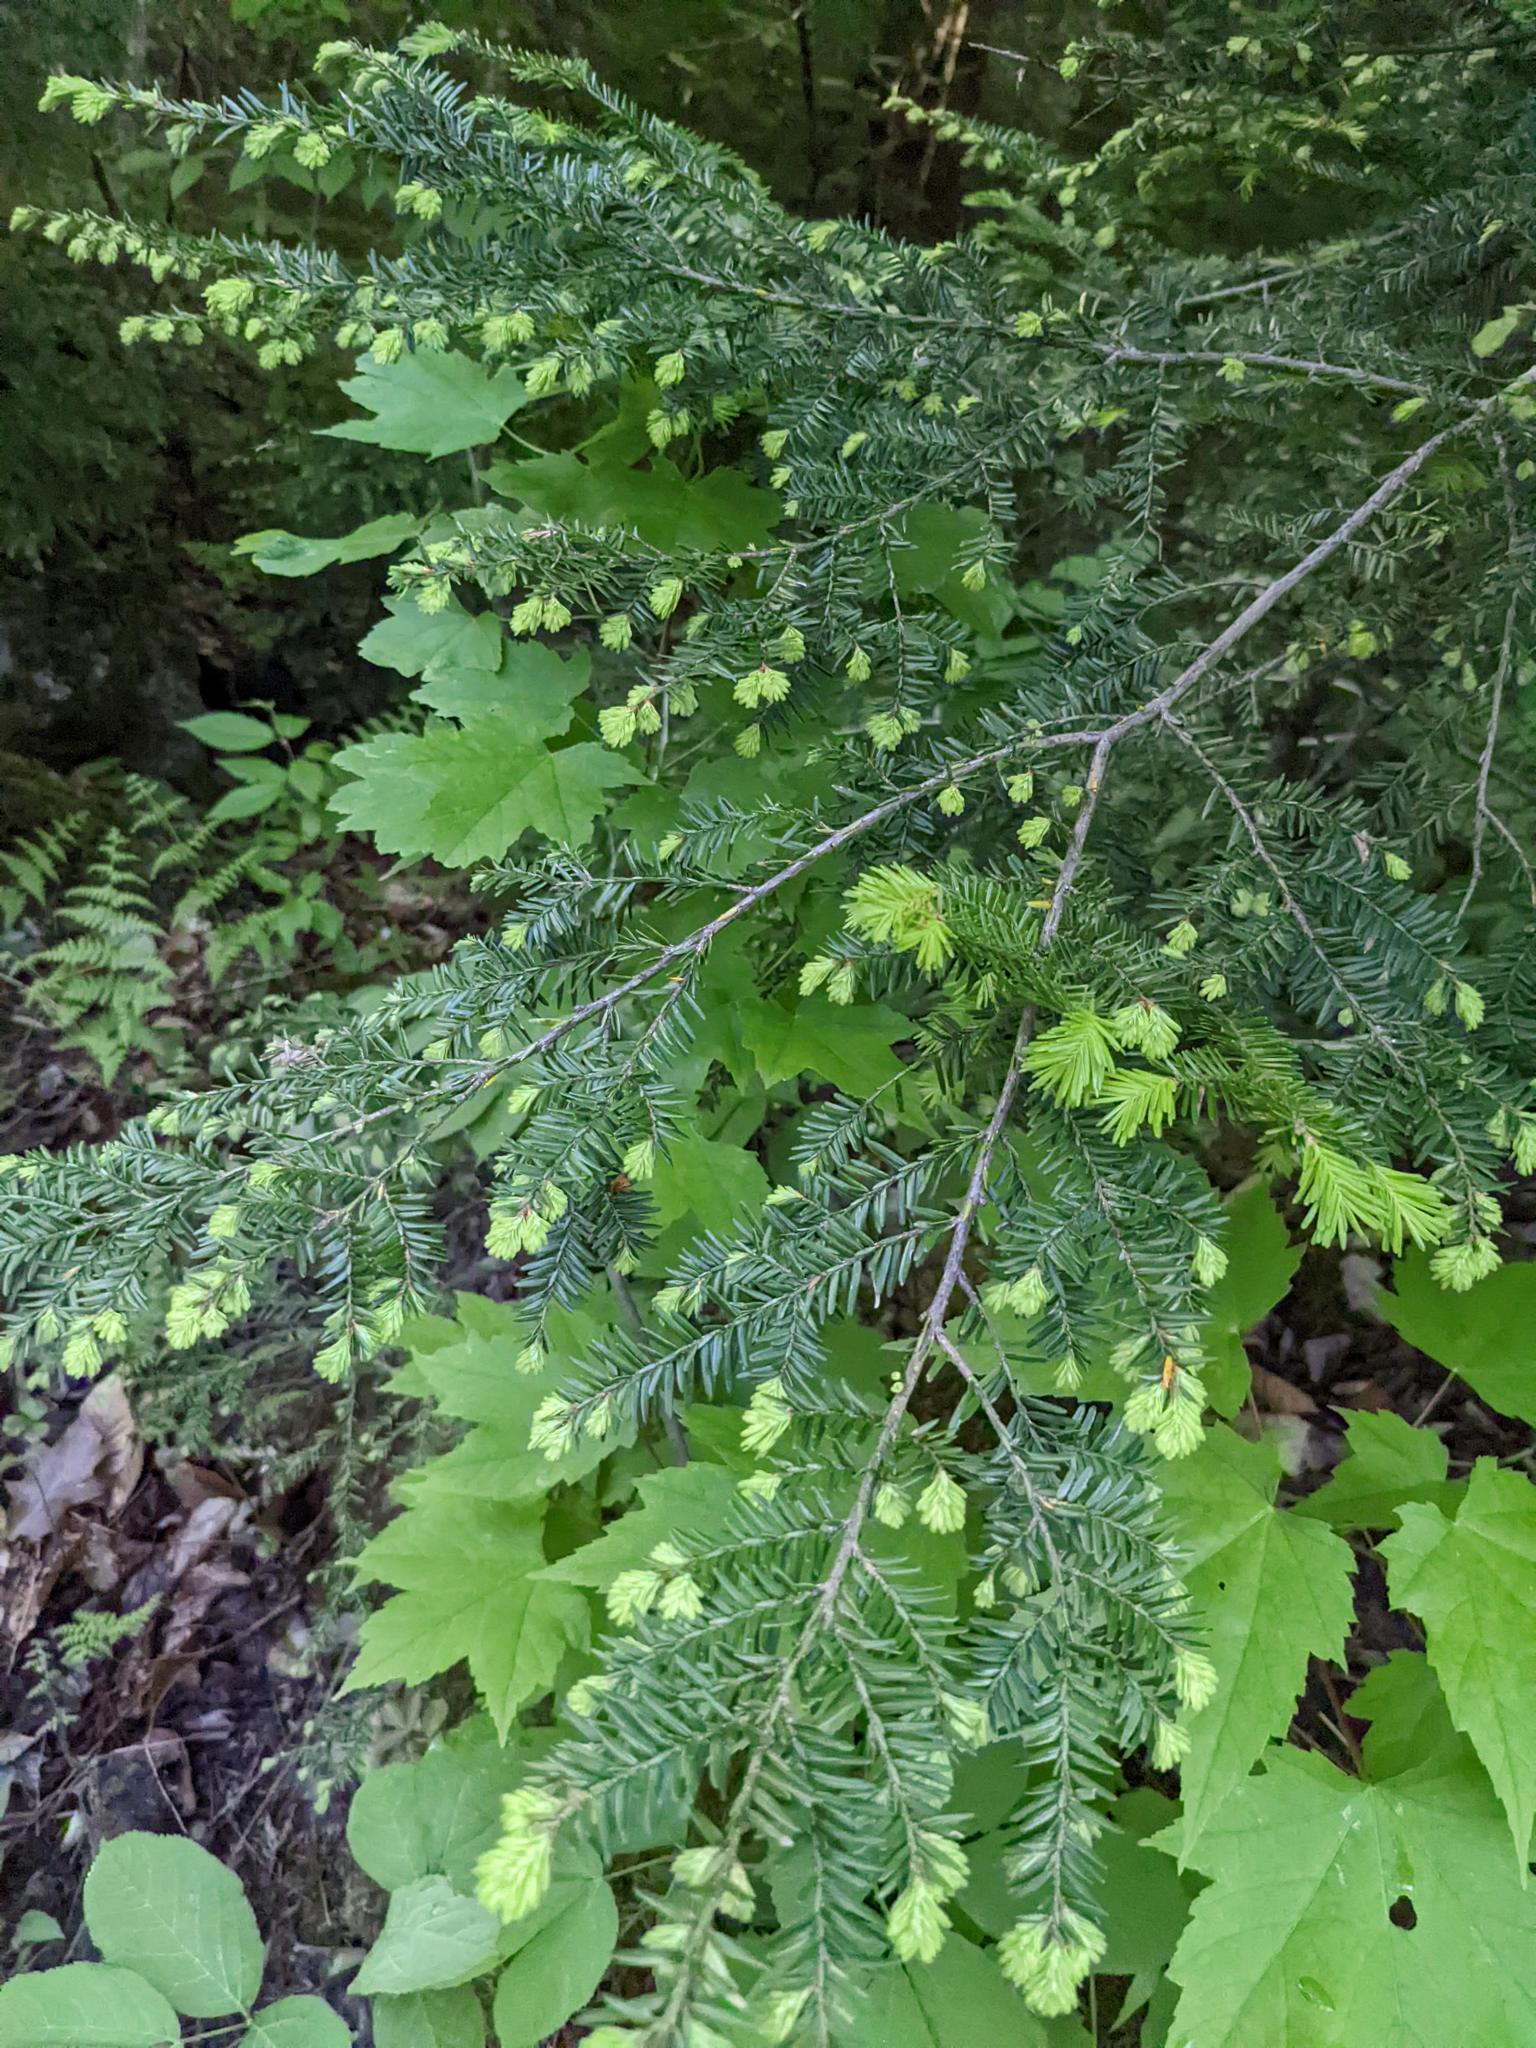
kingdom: Plantae
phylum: Tracheophyta
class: Pinopsida
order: Pinales
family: Pinaceae
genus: Tsuga
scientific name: Tsuga canadensis
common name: Eastern hemlock
